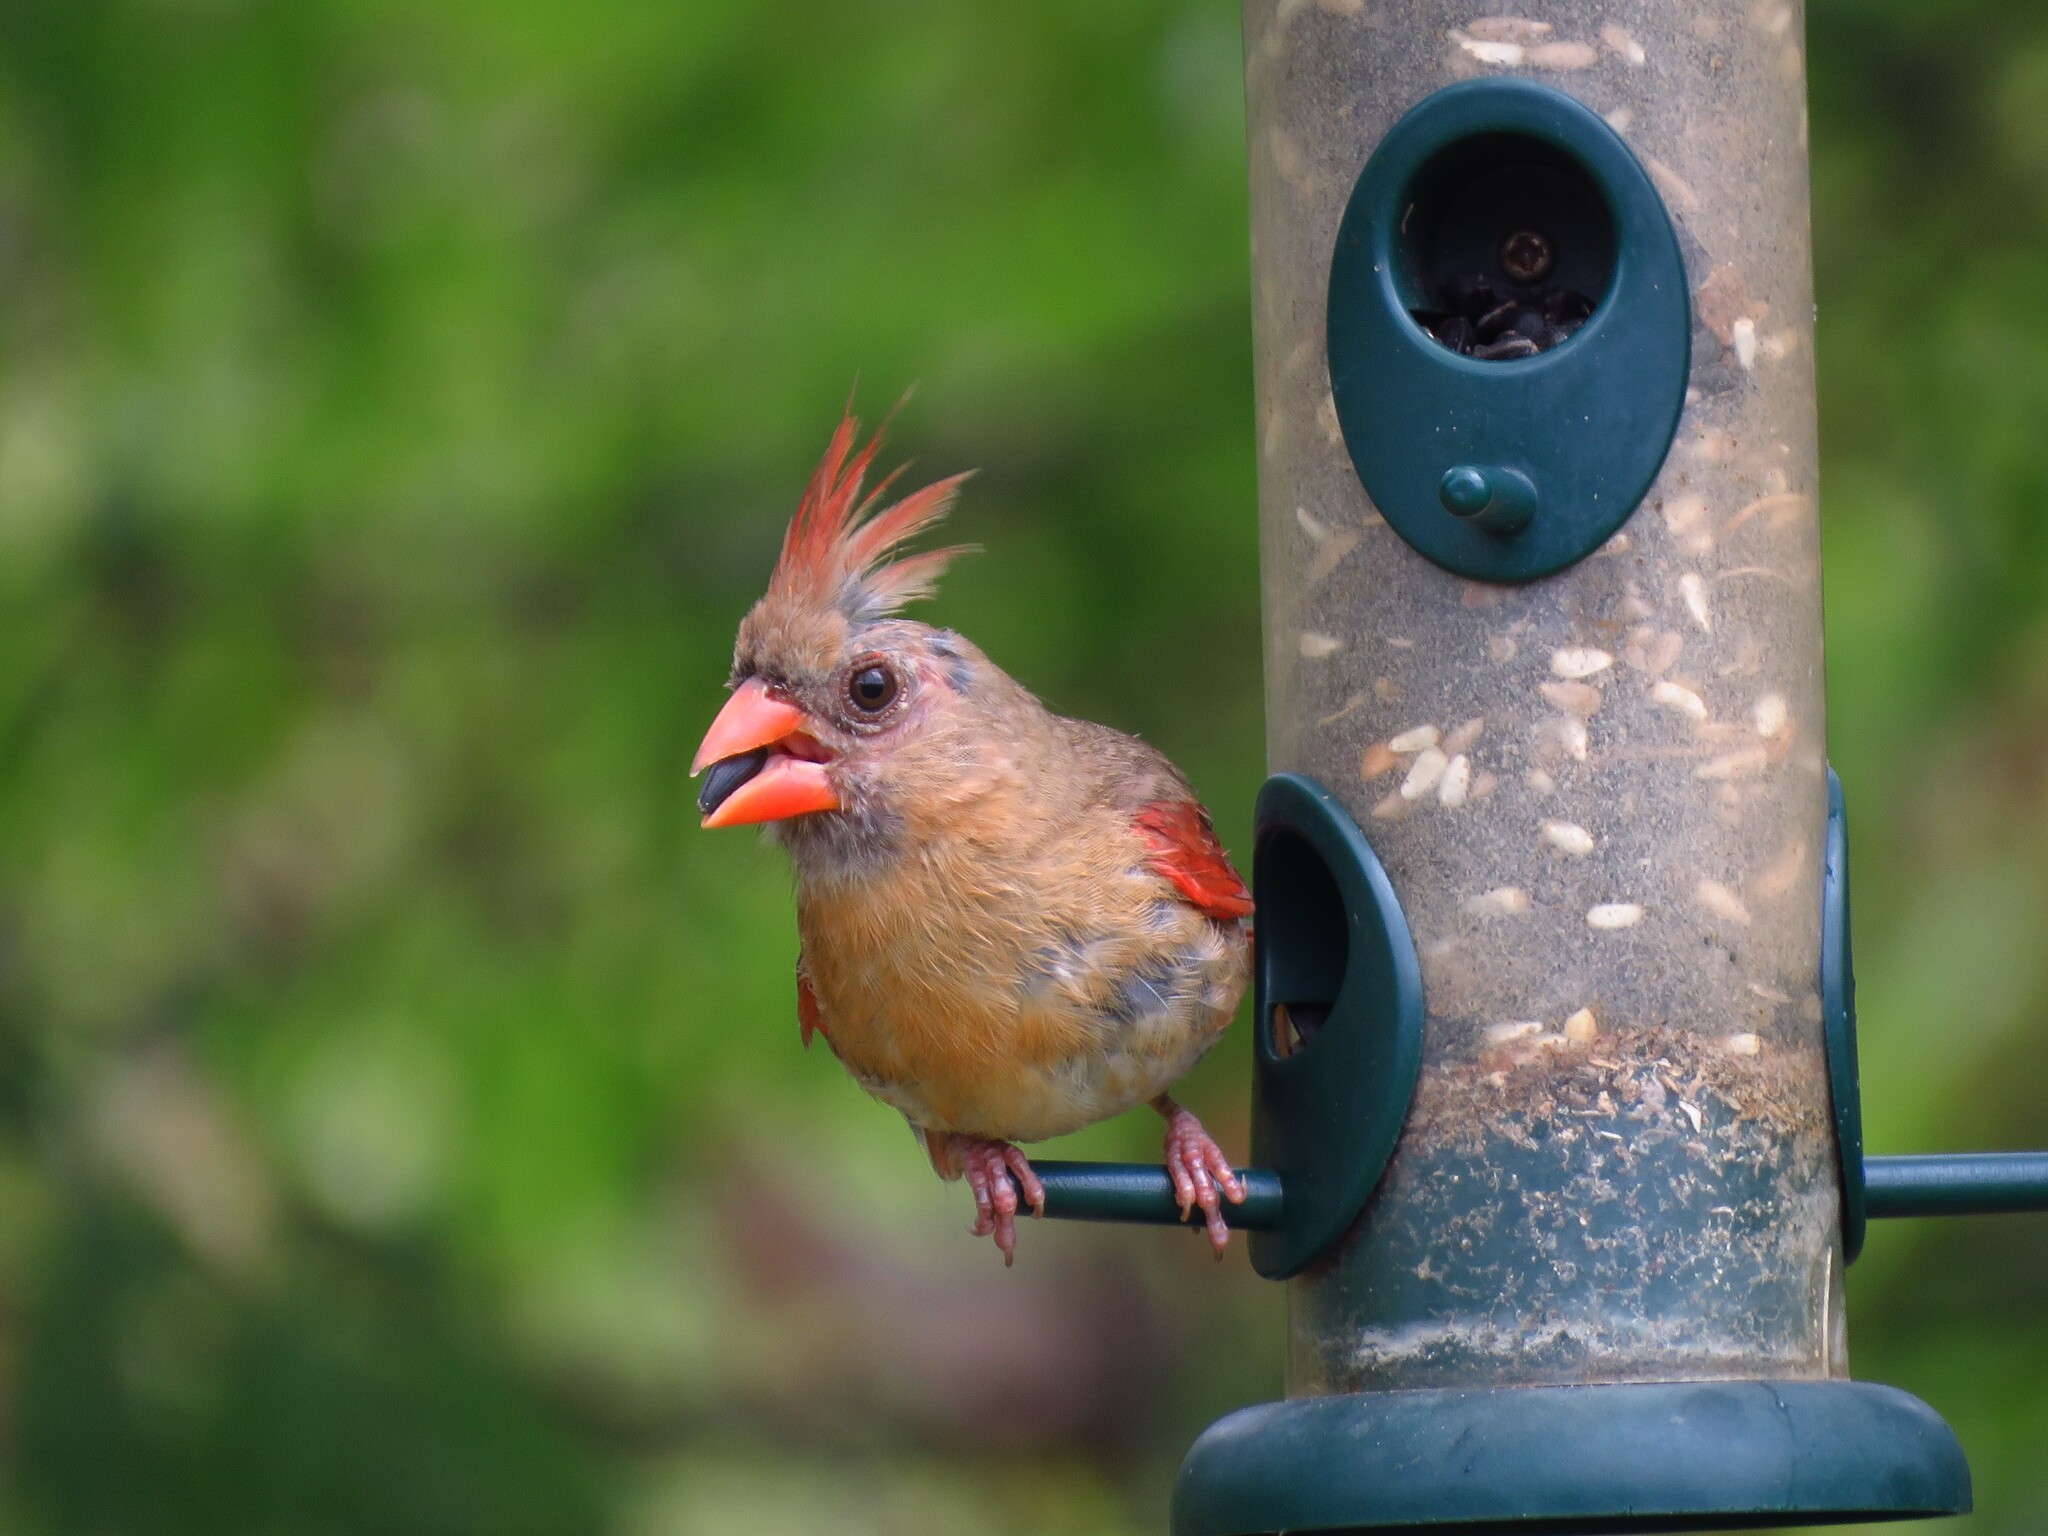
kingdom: Animalia
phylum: Chordata
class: Aves
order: Passeriformes
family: Cardinalidae
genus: Cardinalis
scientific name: Cardinalis cardinalis
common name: Northern cardinal
